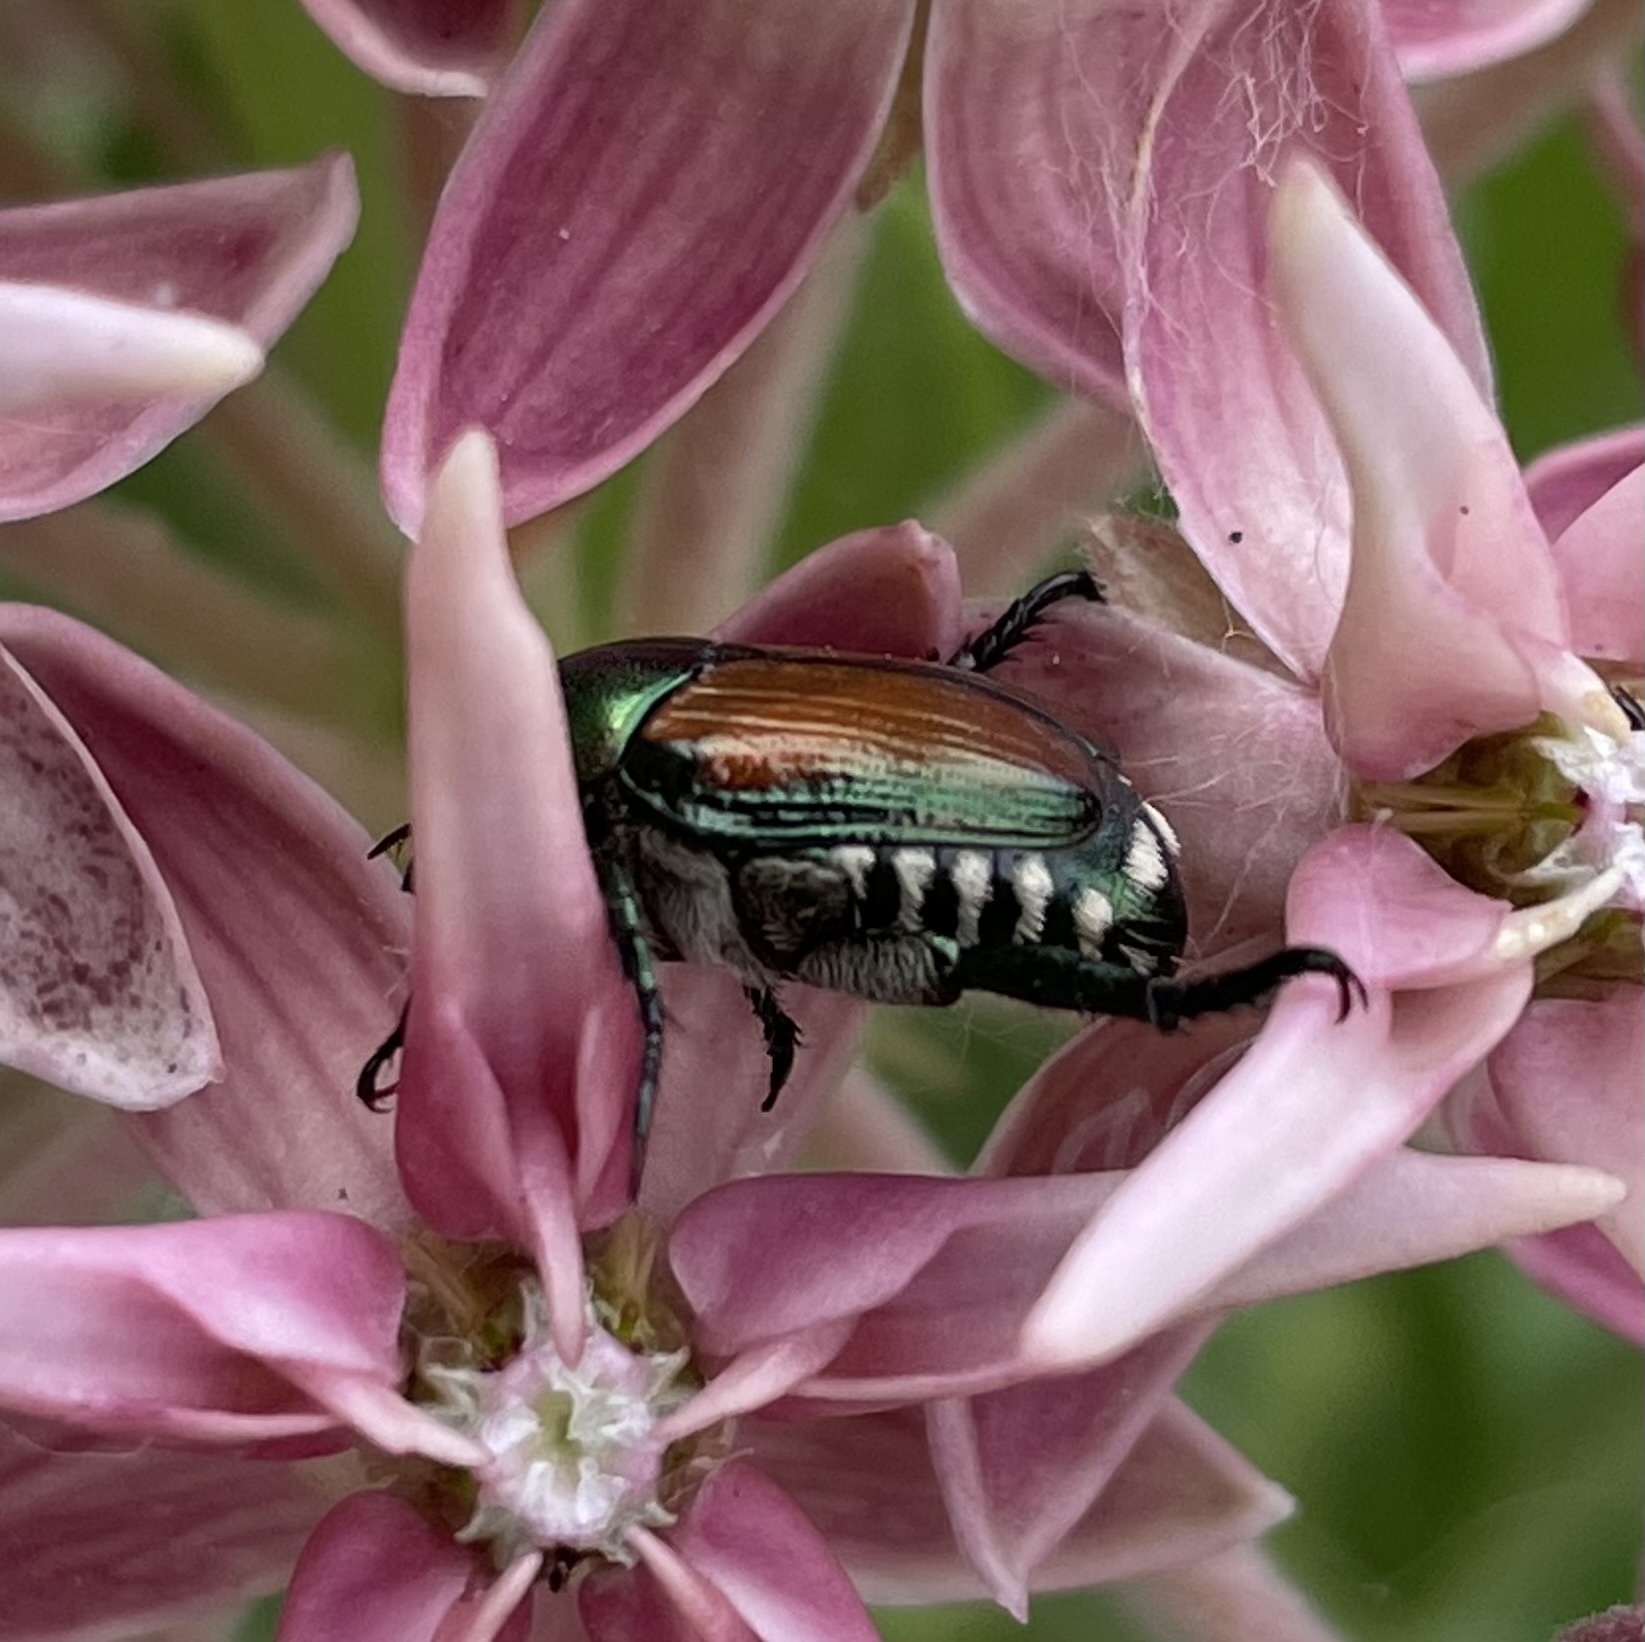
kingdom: Animalia
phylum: Arthropoda
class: Insecta
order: Coleoptera
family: Scarabaeidae
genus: Popillia
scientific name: Popillia japonica
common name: Japanese beetle
